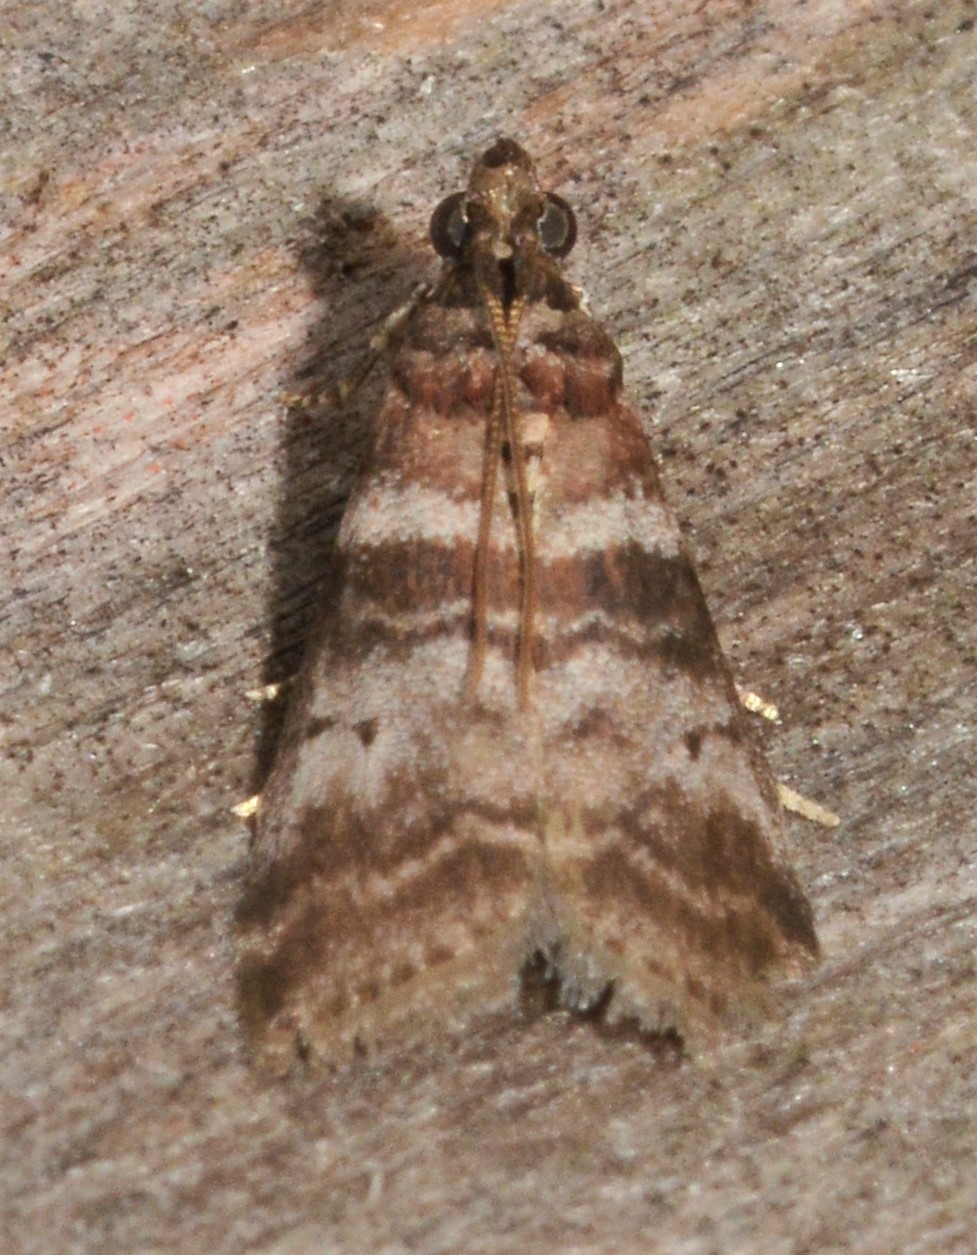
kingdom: Animalia
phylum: Arthropoda
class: Insecta
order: Lepidoptera
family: Pyralidae
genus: Sciota
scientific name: Sciota uvinella
